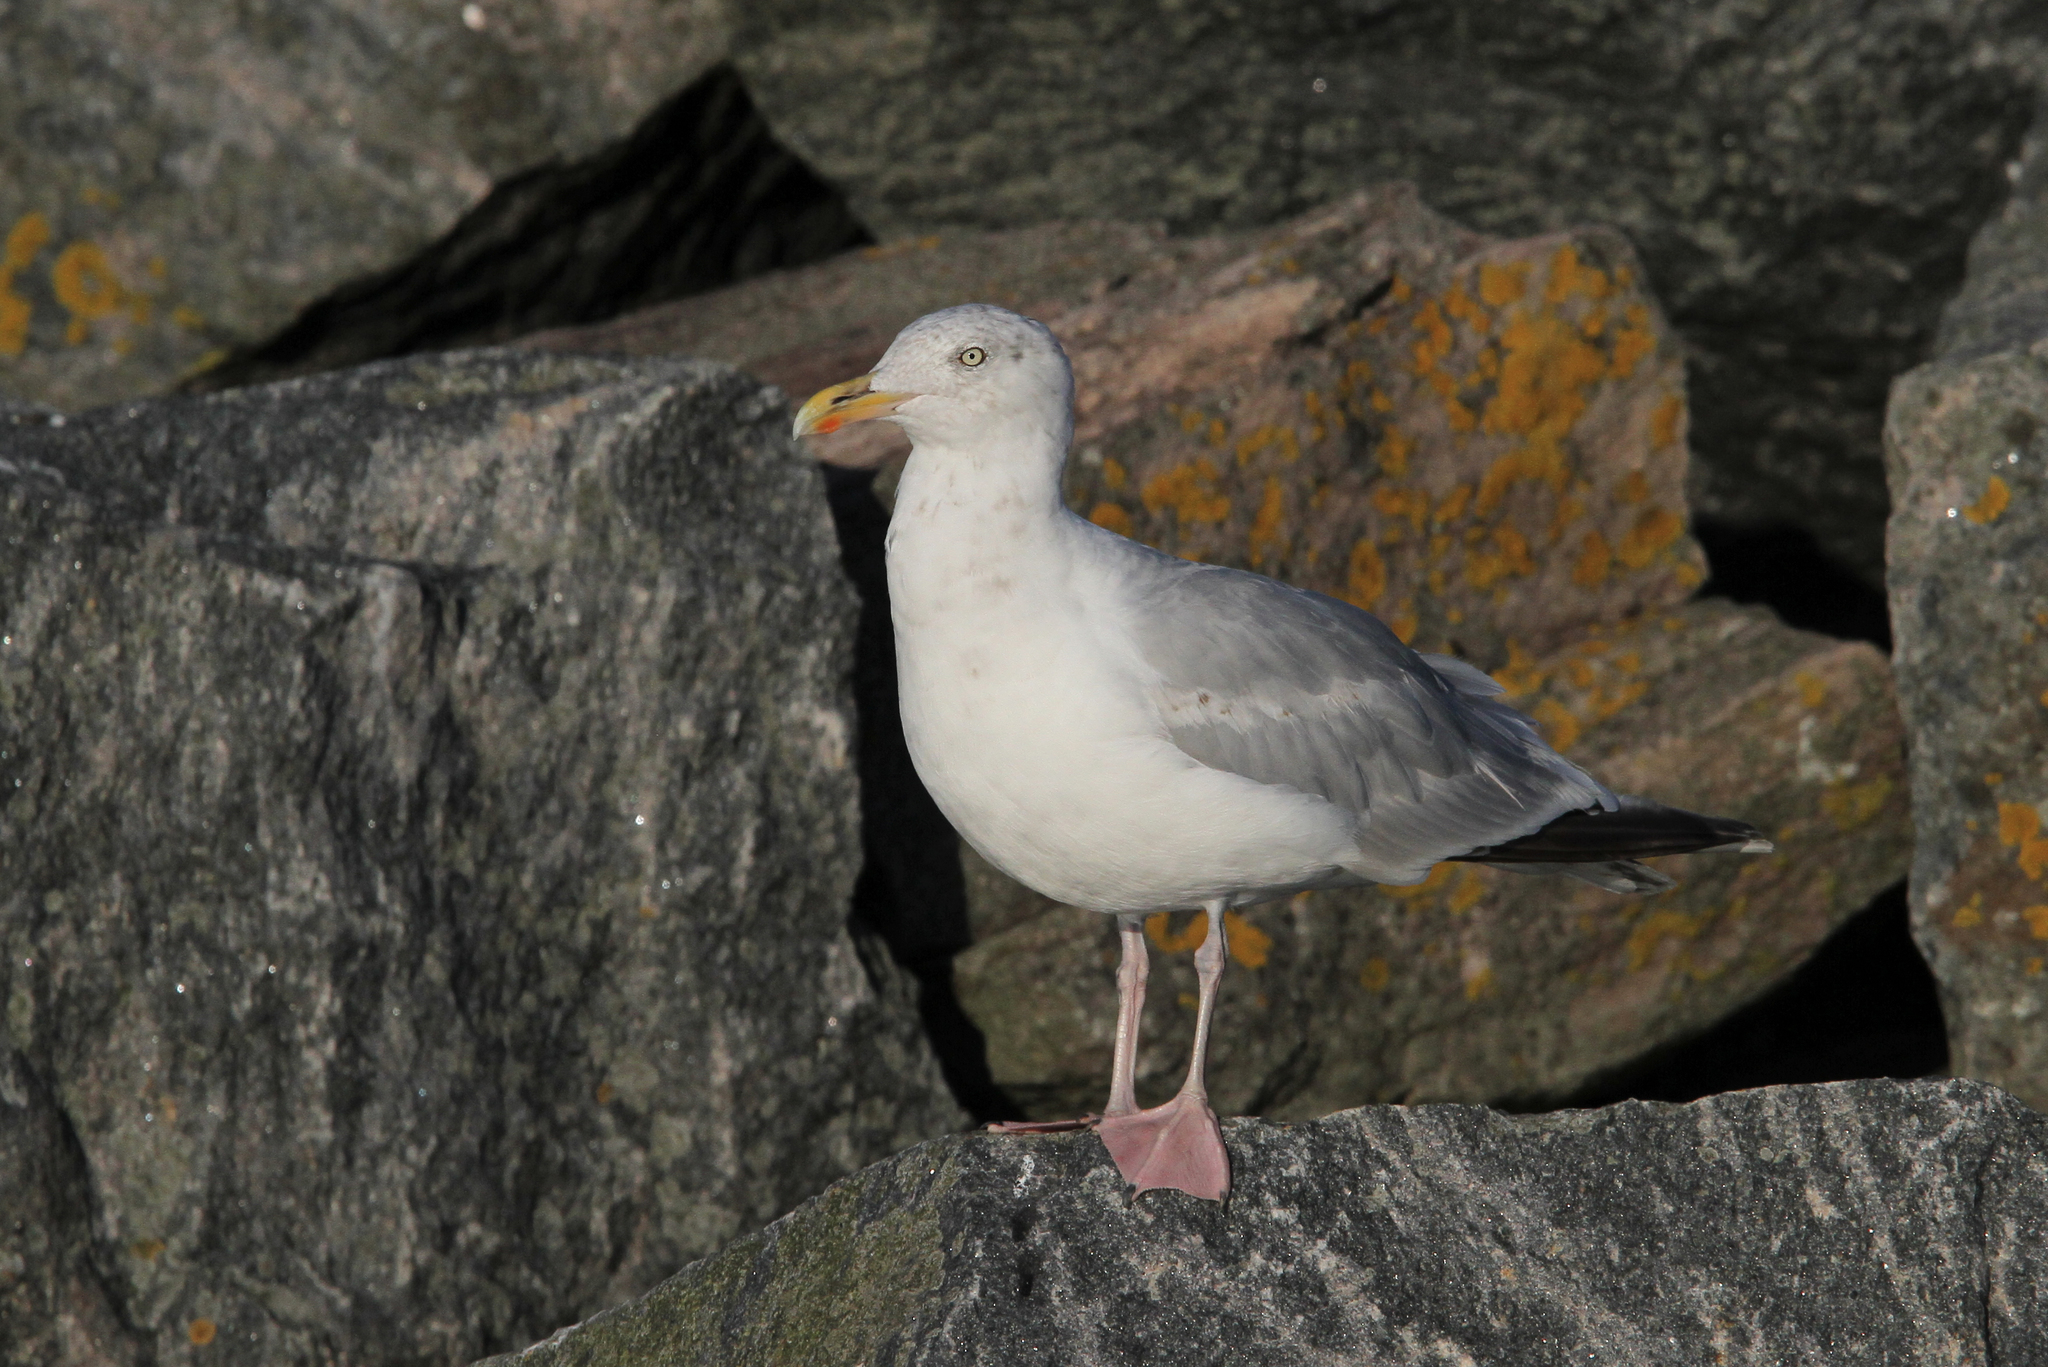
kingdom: Animalia
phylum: Chordata
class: Aves
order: Charadriiformes
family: Laridae
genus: Larus
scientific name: Larus argentatus
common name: Herring gull
